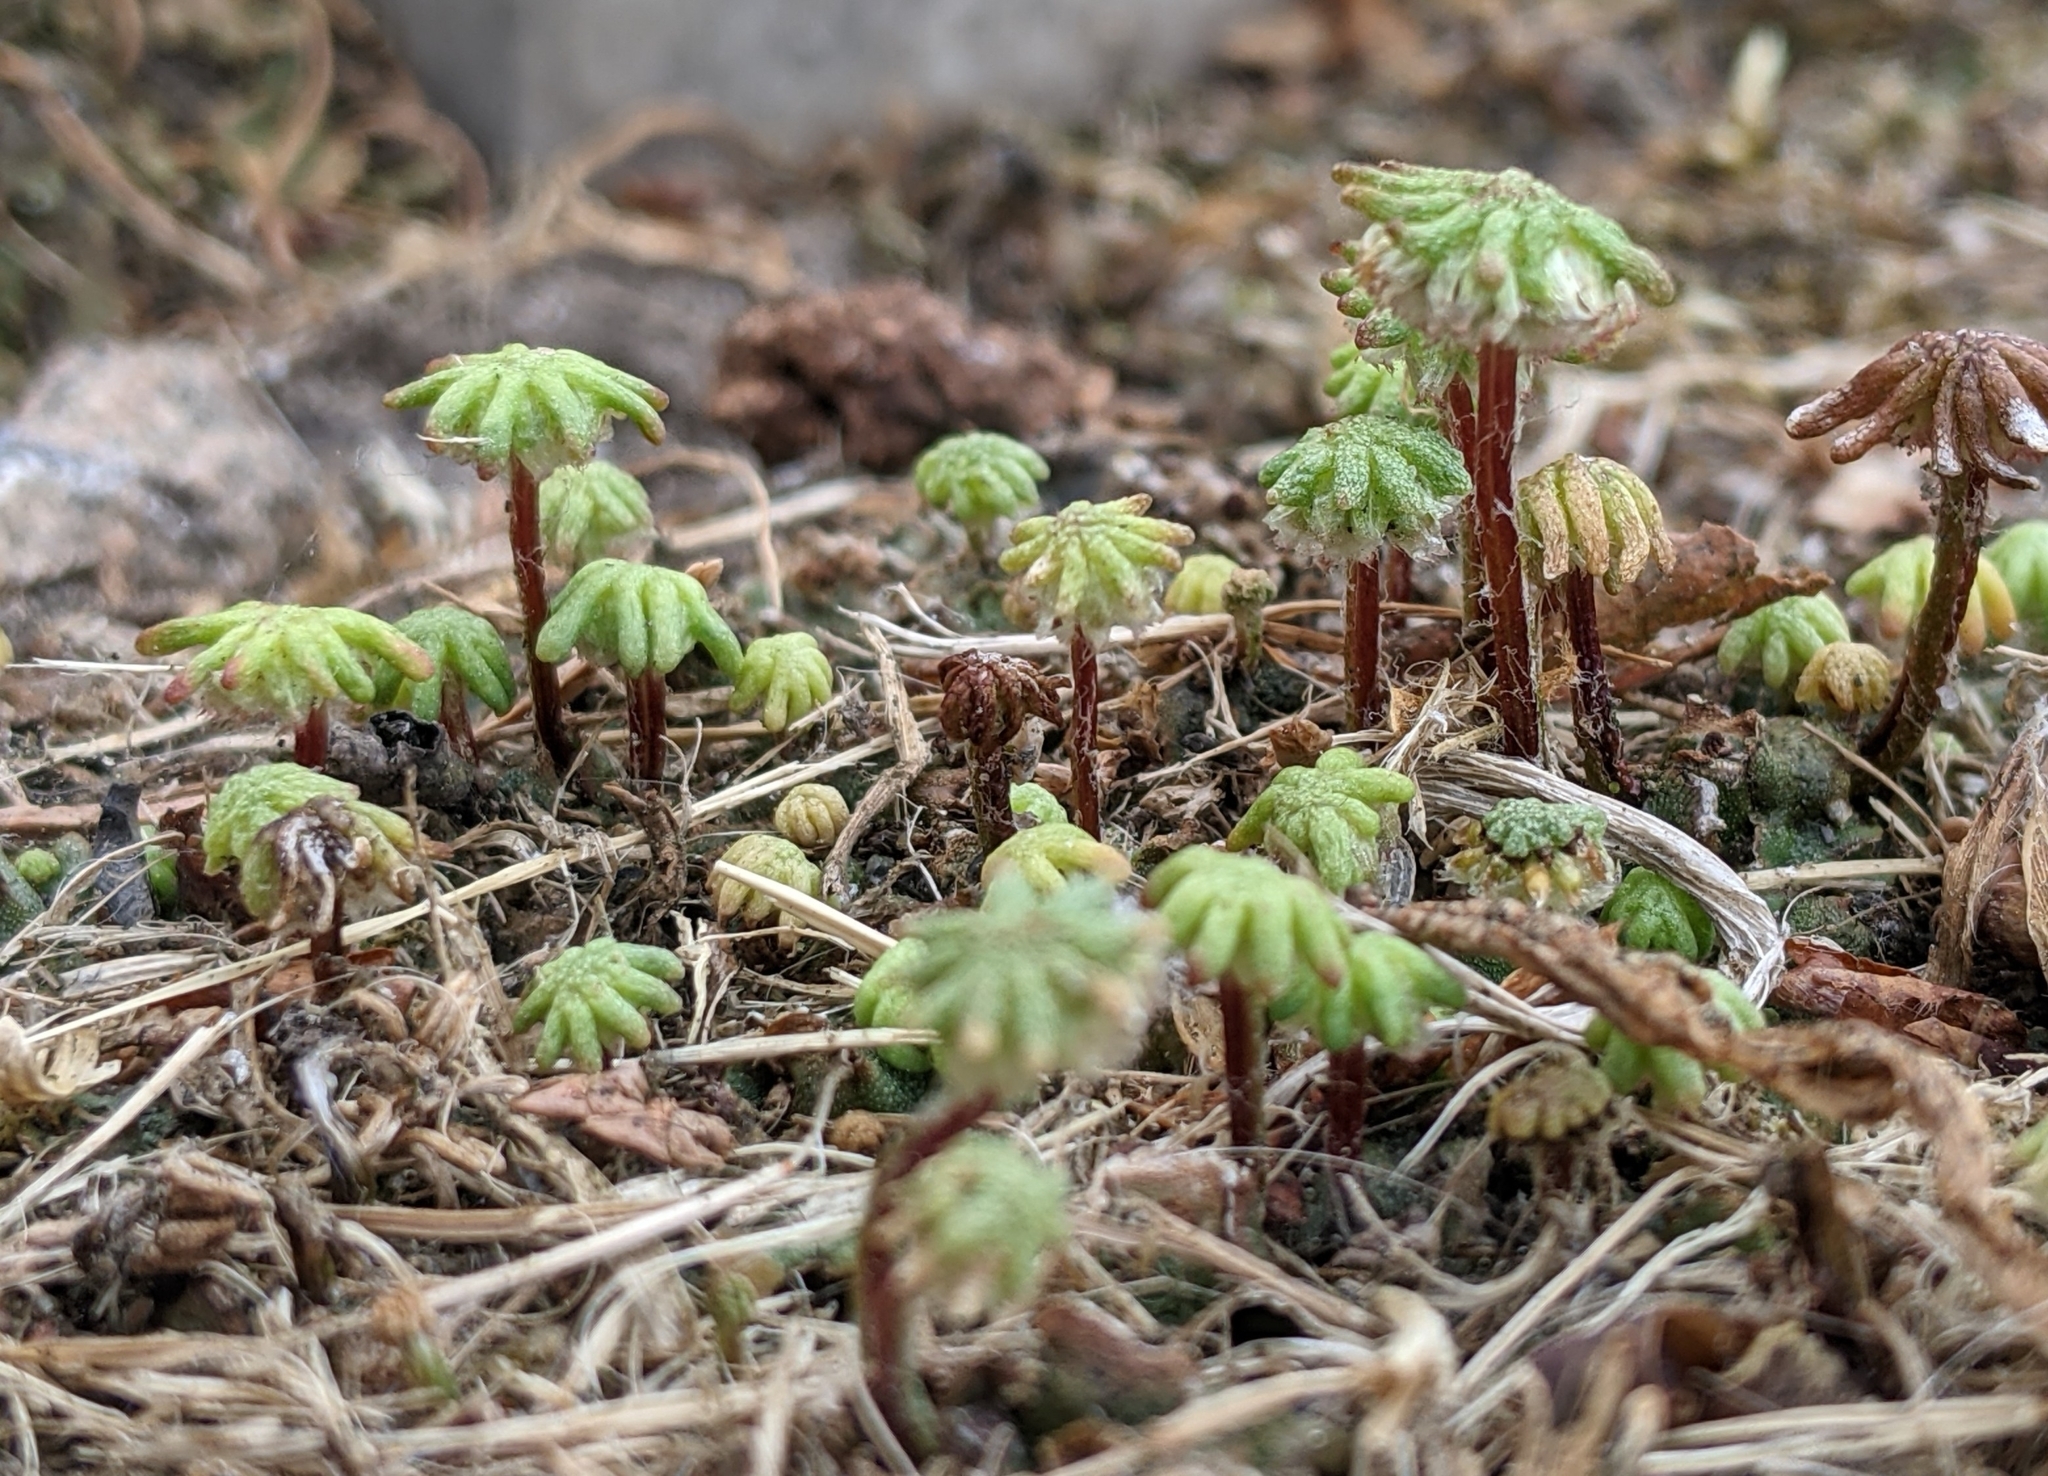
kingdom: Plantae
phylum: Marchantiophyta
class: Marchantiopsida
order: Marchantiales
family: Marchantiaceae
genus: Marchantia
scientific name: Marchantia polymorpha
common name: Common liverwort
